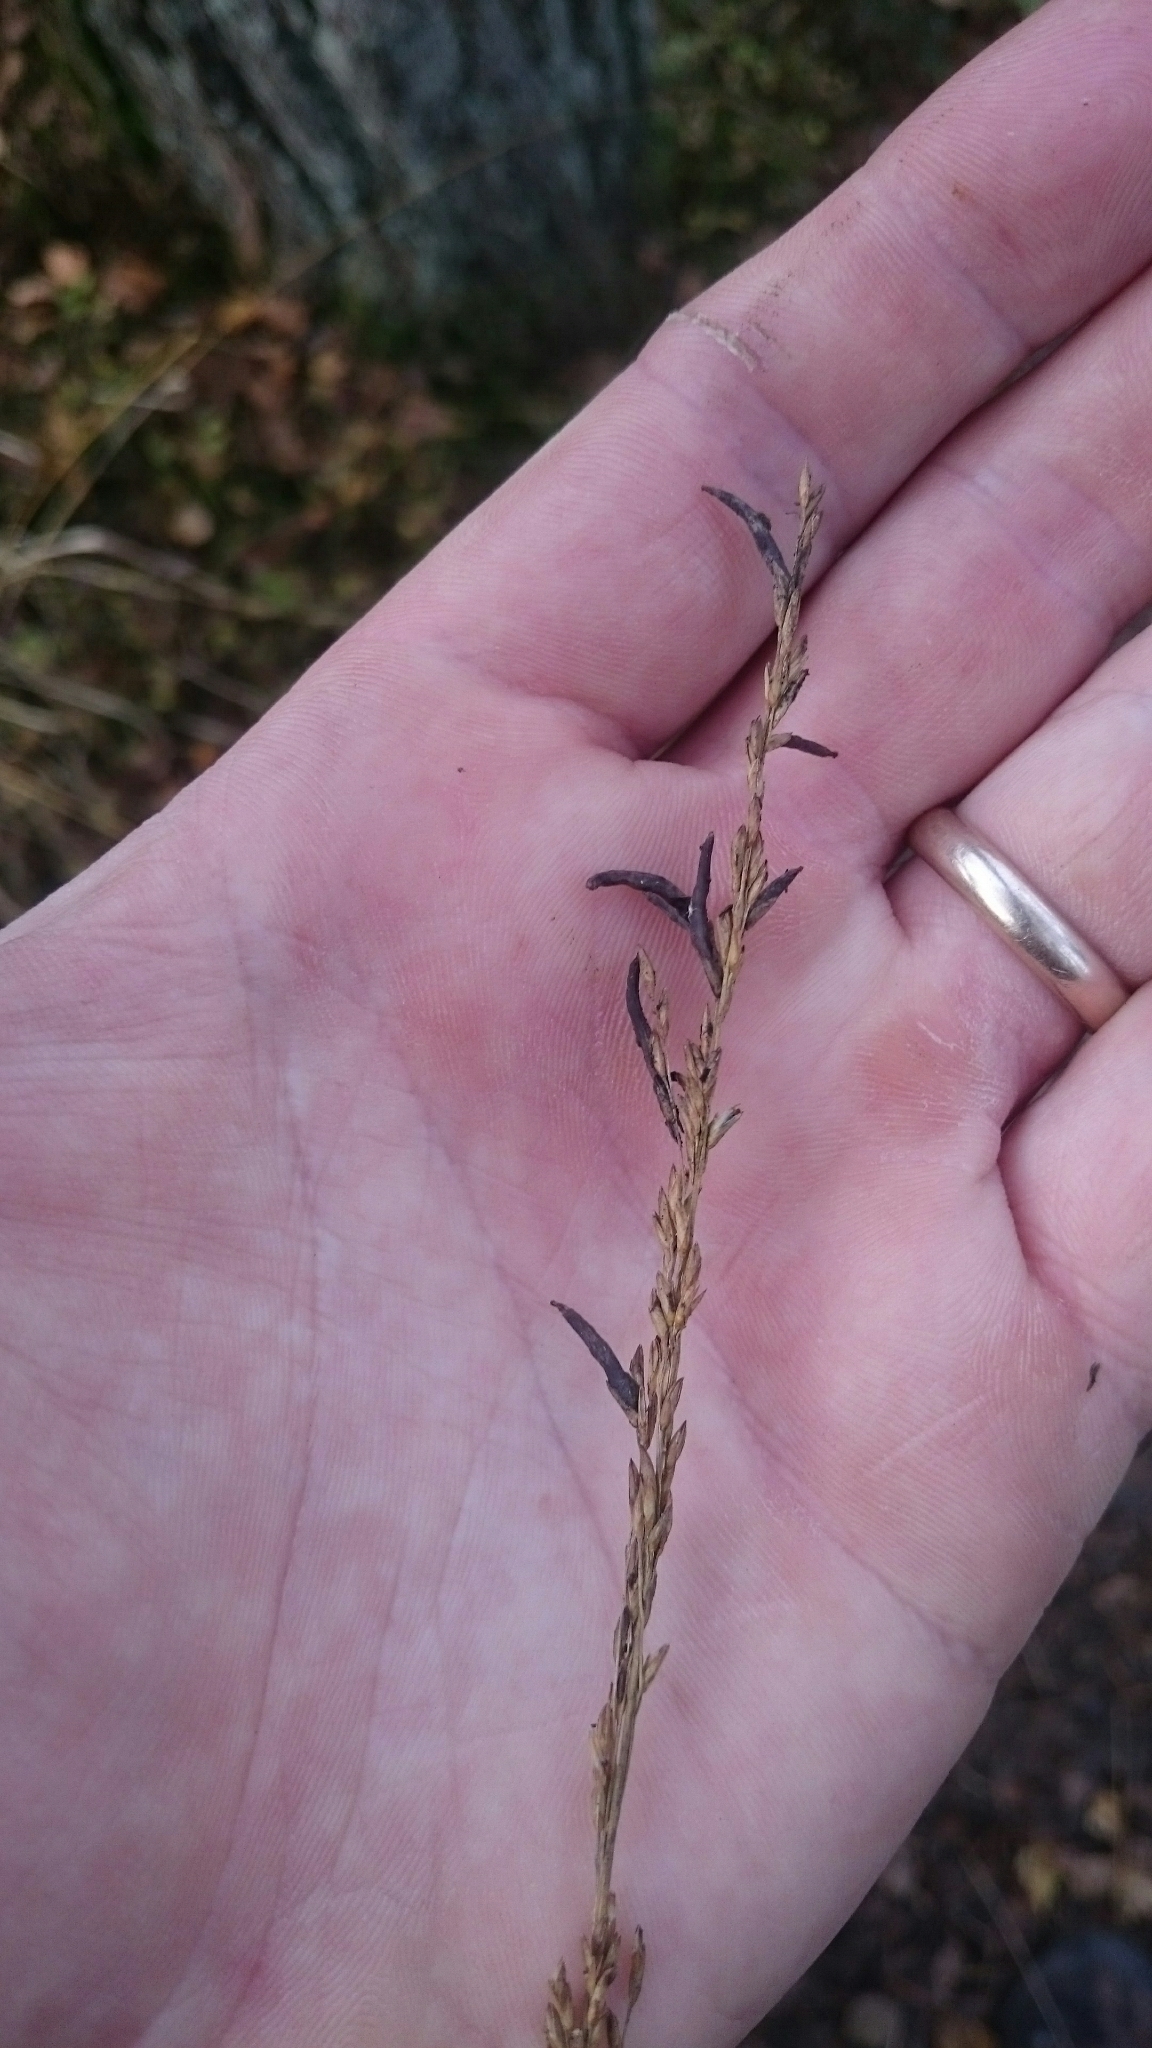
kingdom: Fungi
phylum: Ascomycota
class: Sordariomycetes
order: Hypocreales
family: Clavicipitaceae
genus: Claviceps
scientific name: Claviceps purpurea
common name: Rye ergot
